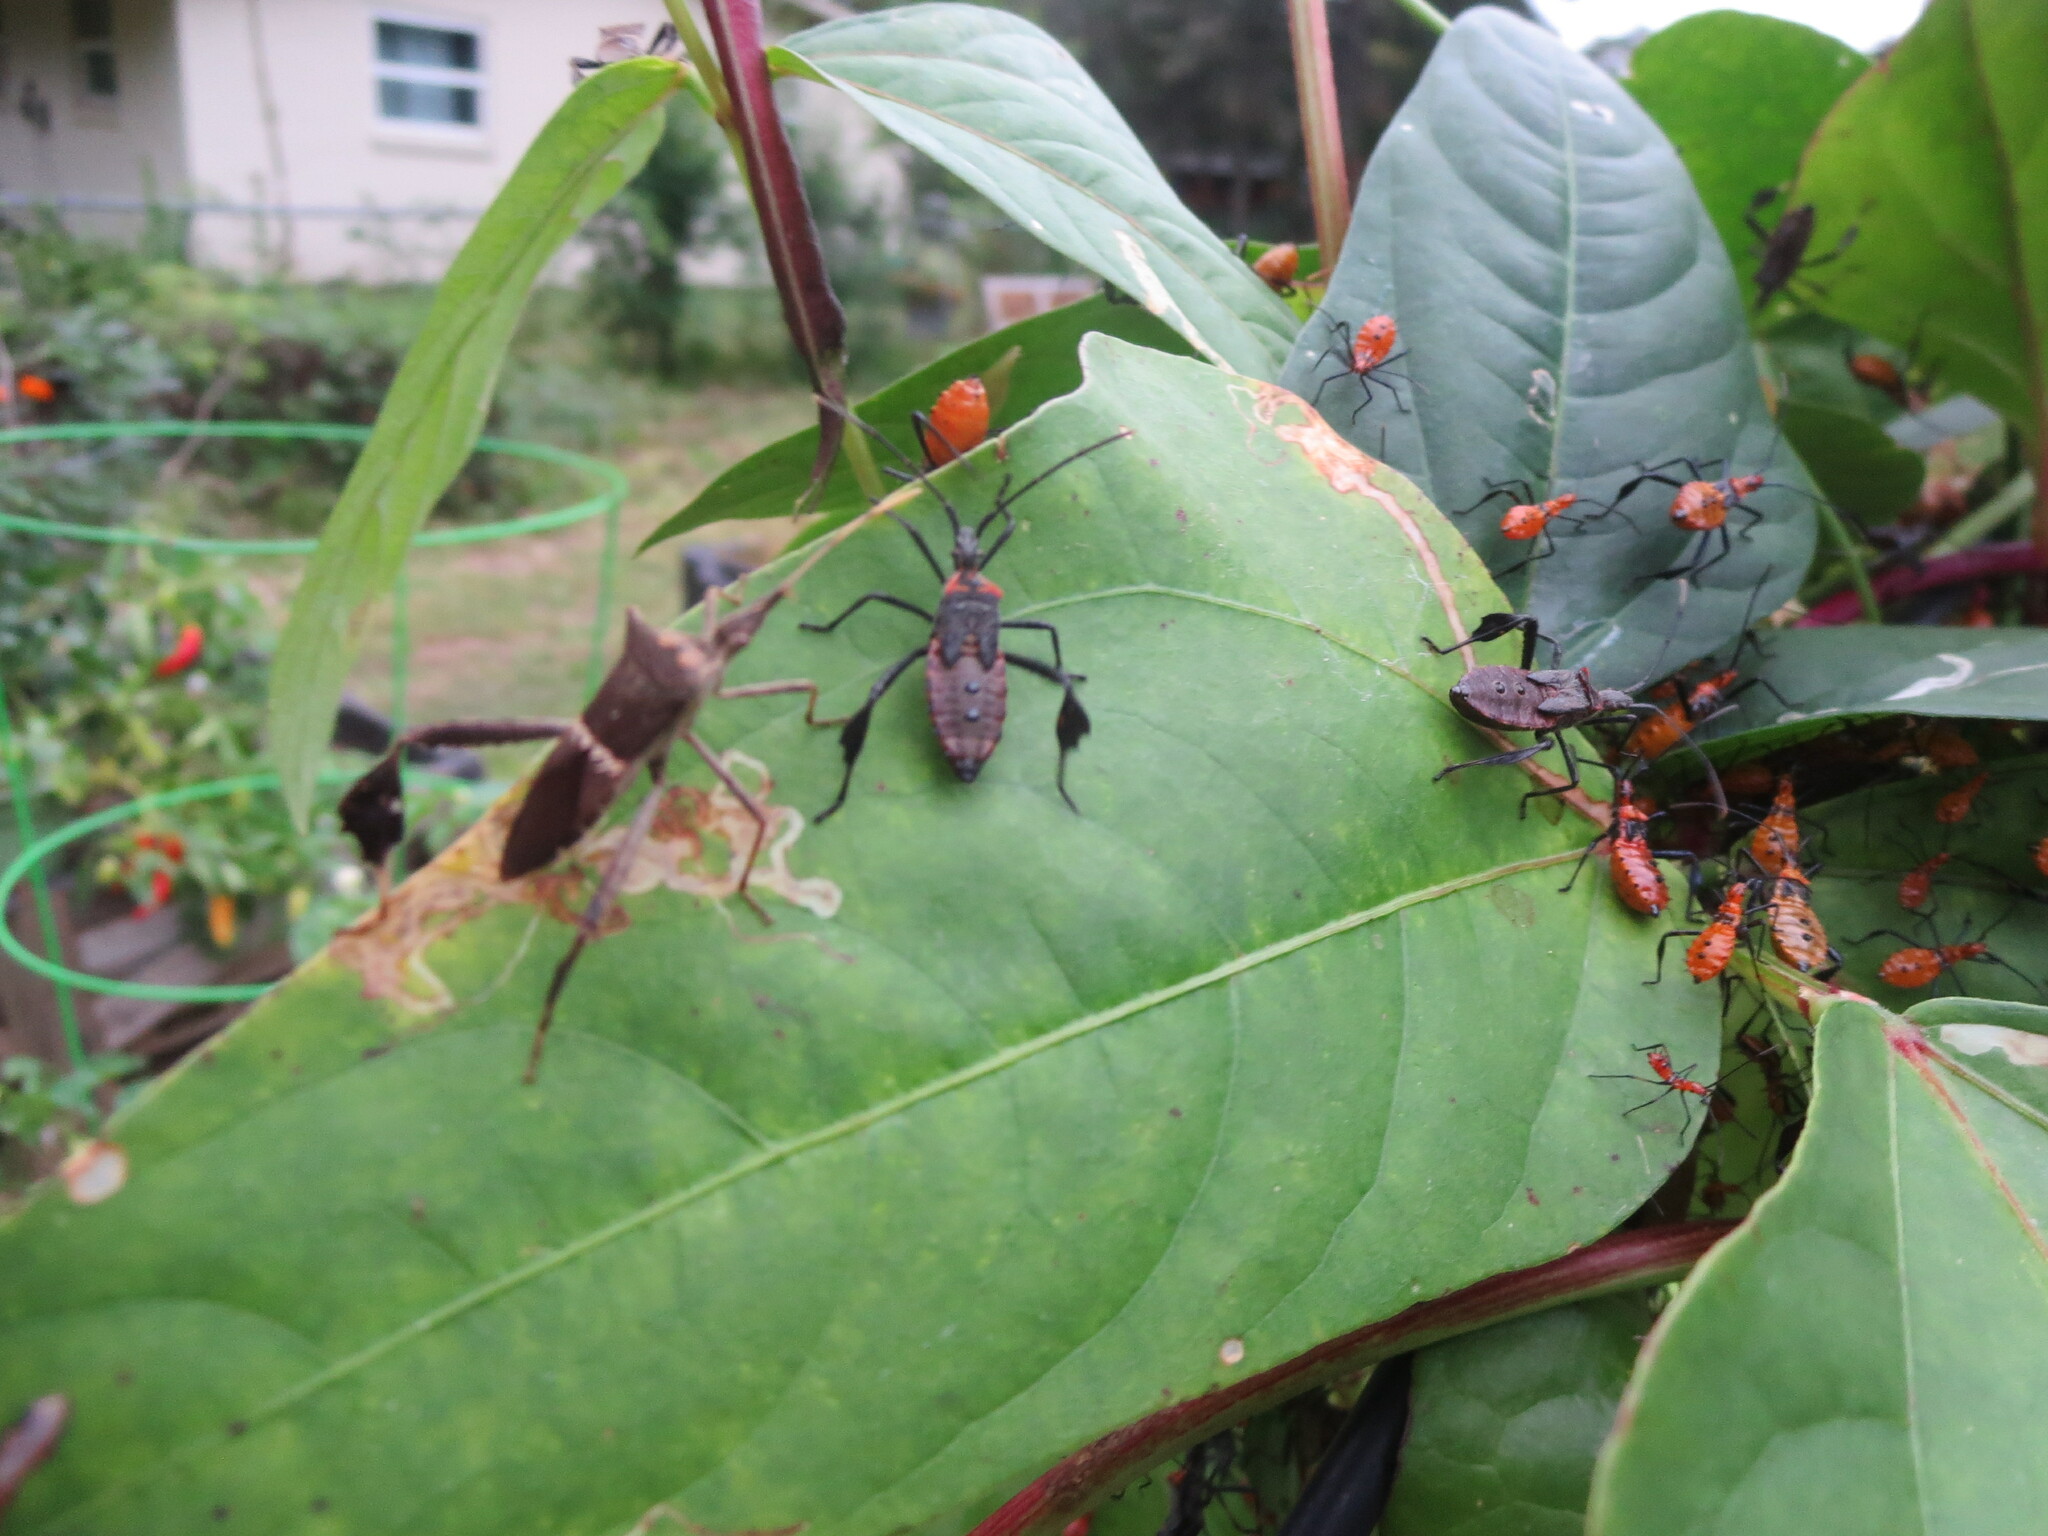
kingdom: Animalia
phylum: Arthropoda
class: Insecta
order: Hemiptera
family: Coreidae
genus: Leptoglossus
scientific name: Leptoglossus zonatus
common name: Large-legged bug
